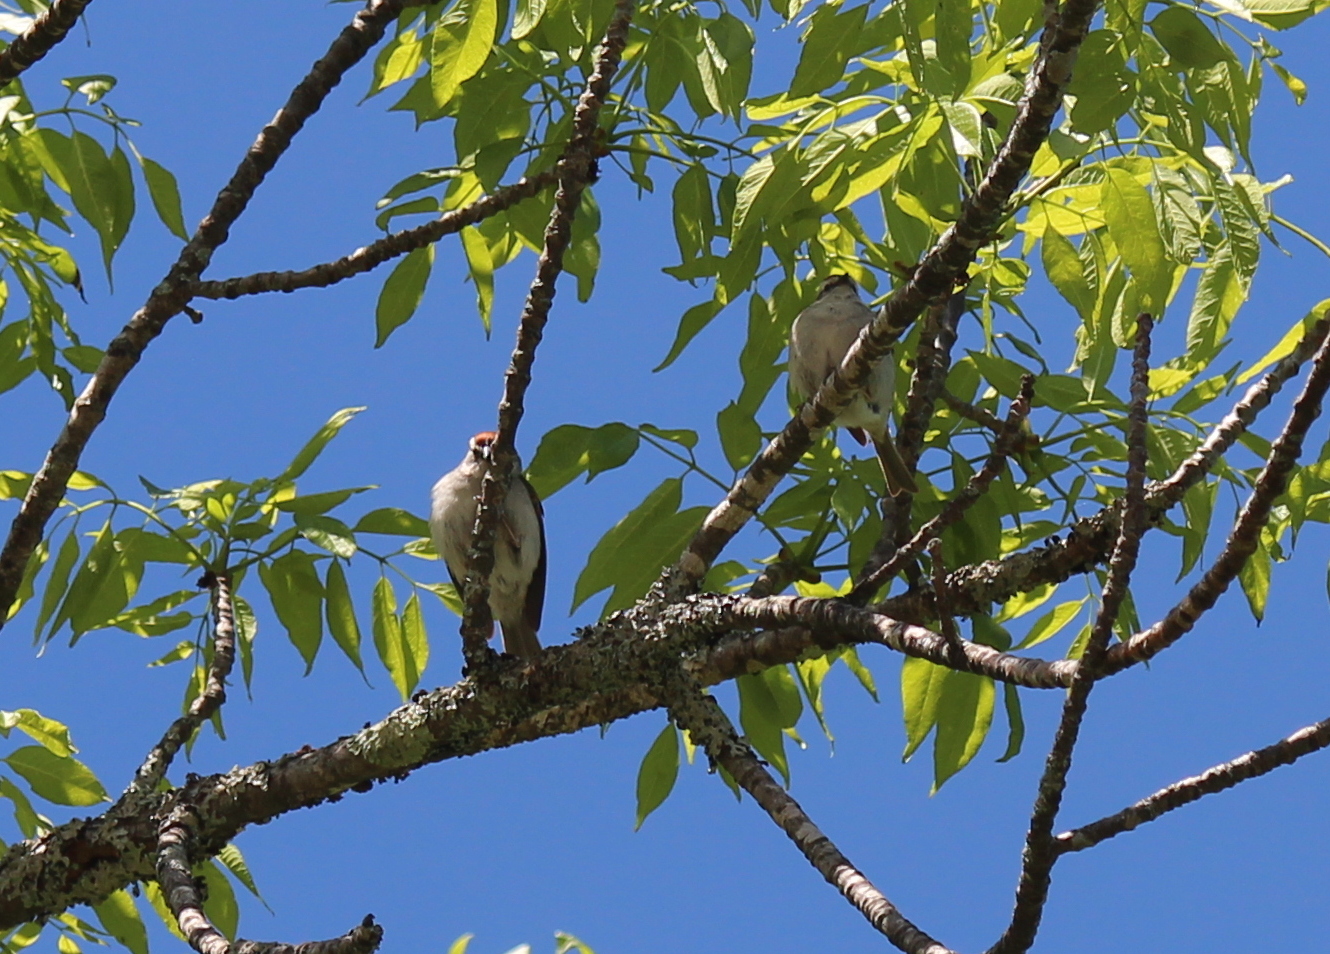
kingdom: Animalia
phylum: Chordata
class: Aves
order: Passeriformes
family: Passerellidae
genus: Spizella
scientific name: Spizella passerina
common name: Chipping sparrow
